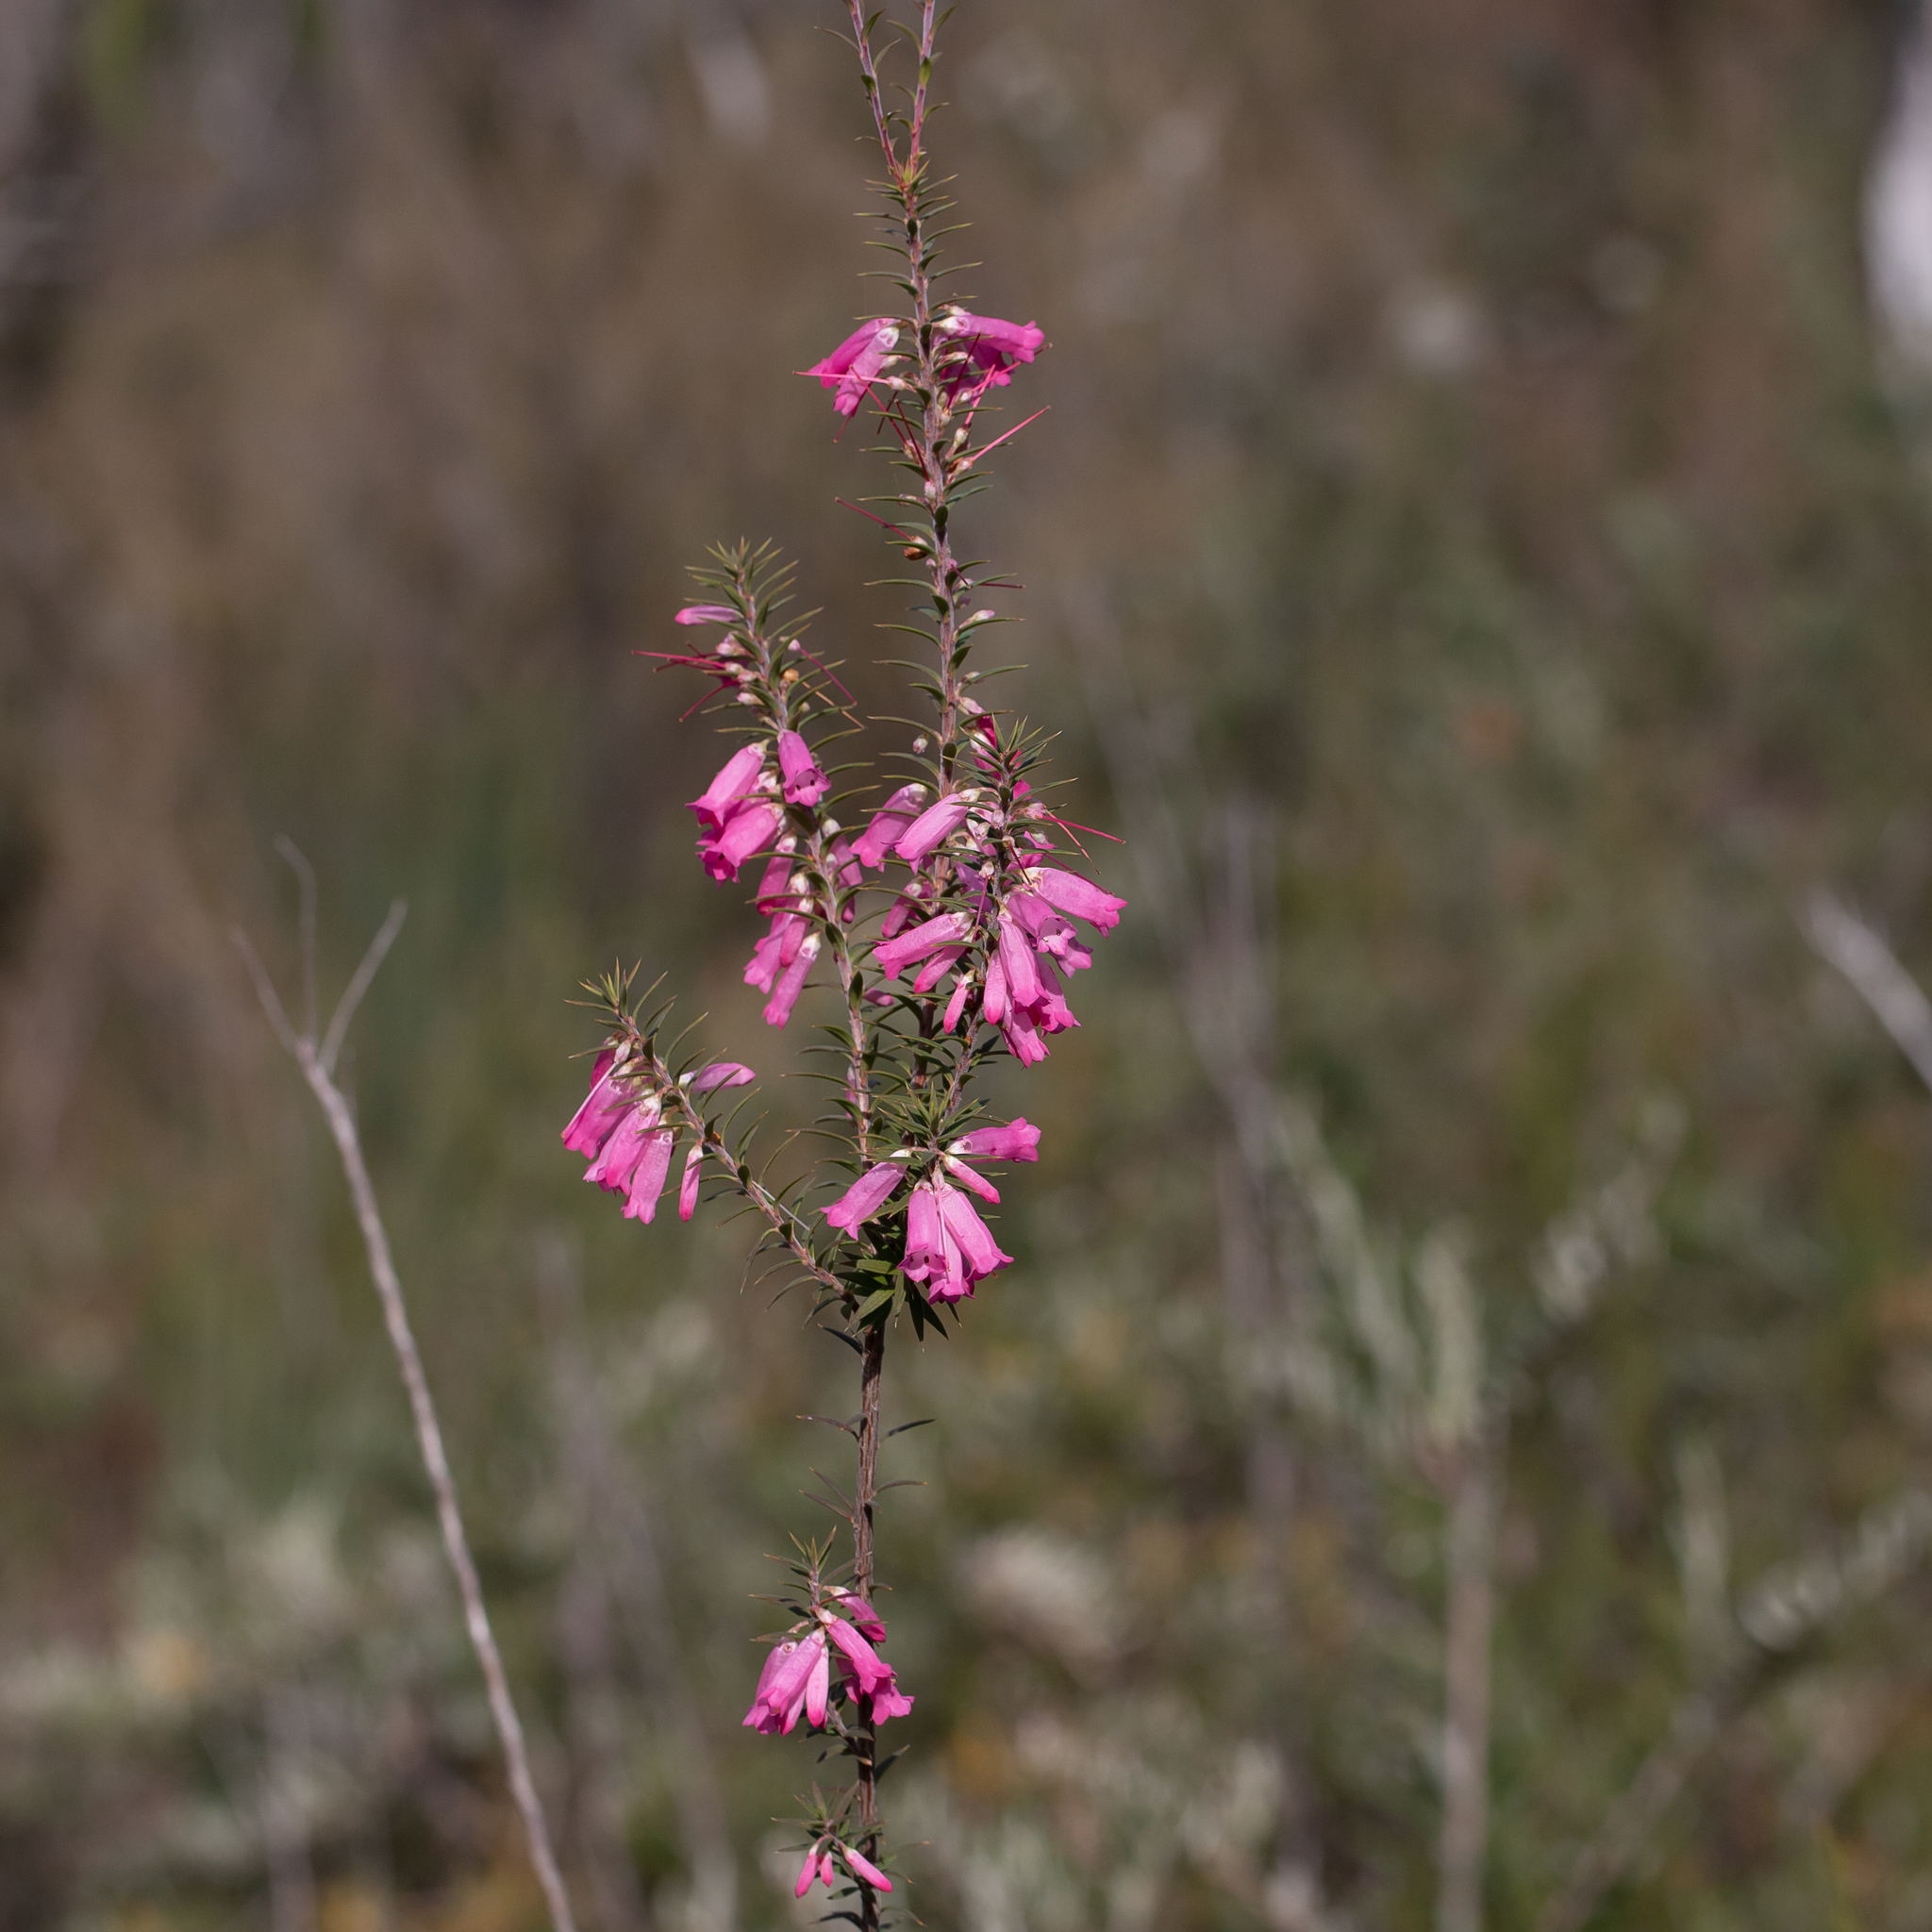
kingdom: Plantae
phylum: Tracheophyta
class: Magnoliopsida
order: Ericales
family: Ericaceae
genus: Epacris
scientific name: Epacris impressa
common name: Common-heath
